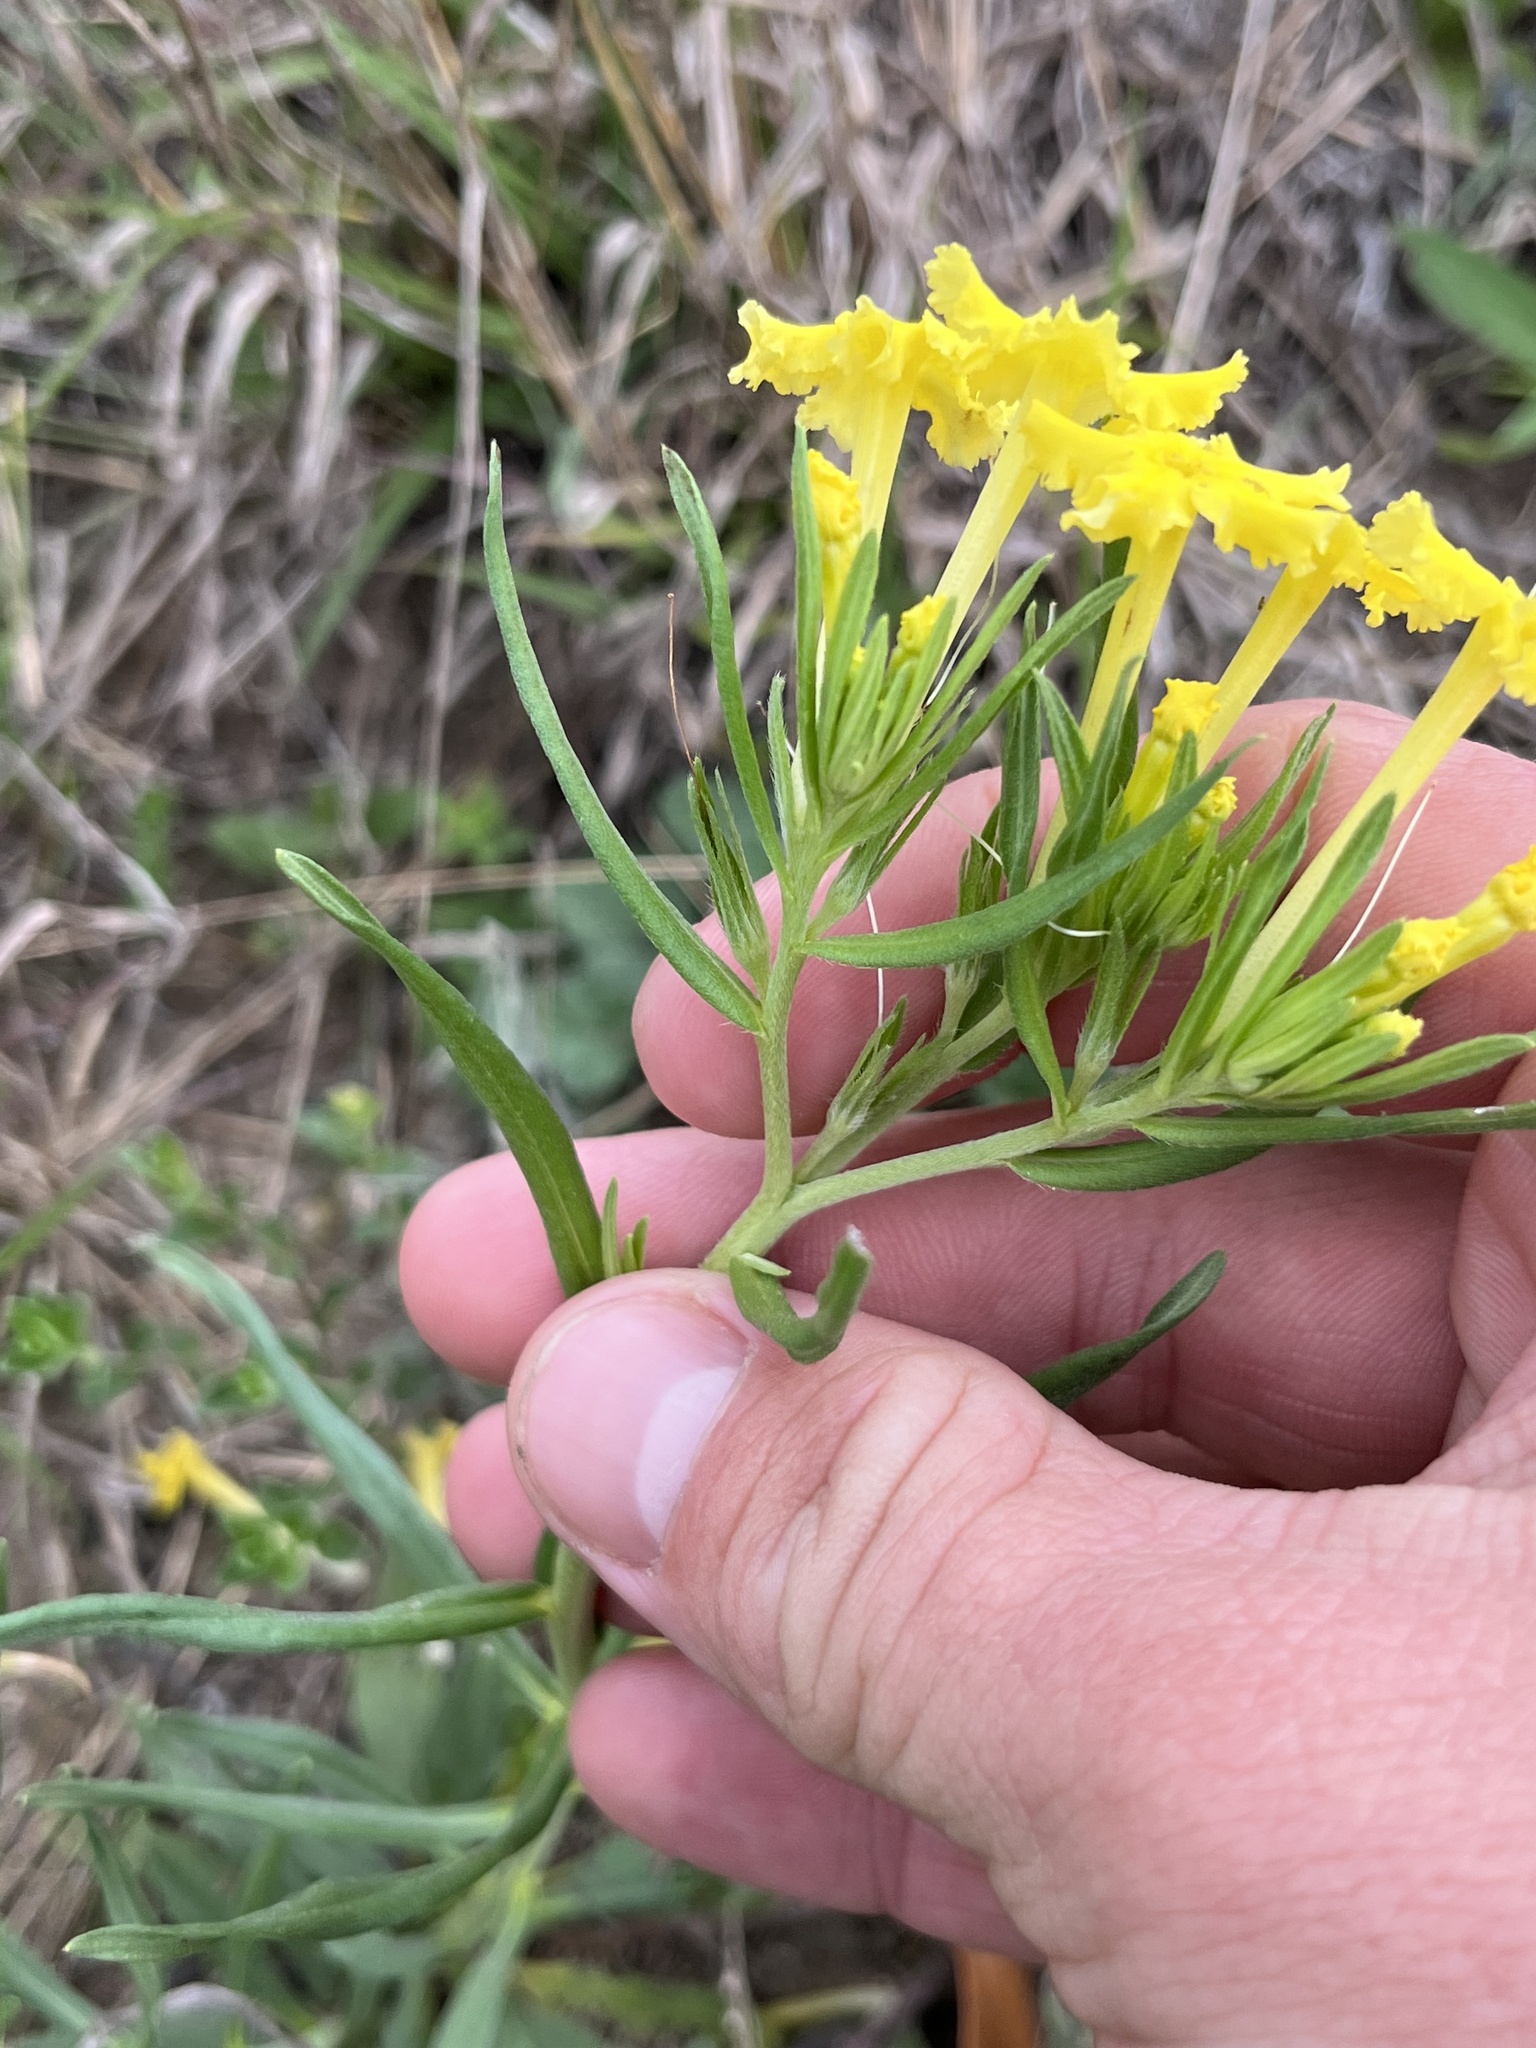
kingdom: Plantae
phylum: Tracheophyta
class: Magnoliopsida
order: Boraginales
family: Boraginaceae
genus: Lithospermum
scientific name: Lithospermum incisum
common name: Fringed gromwell
